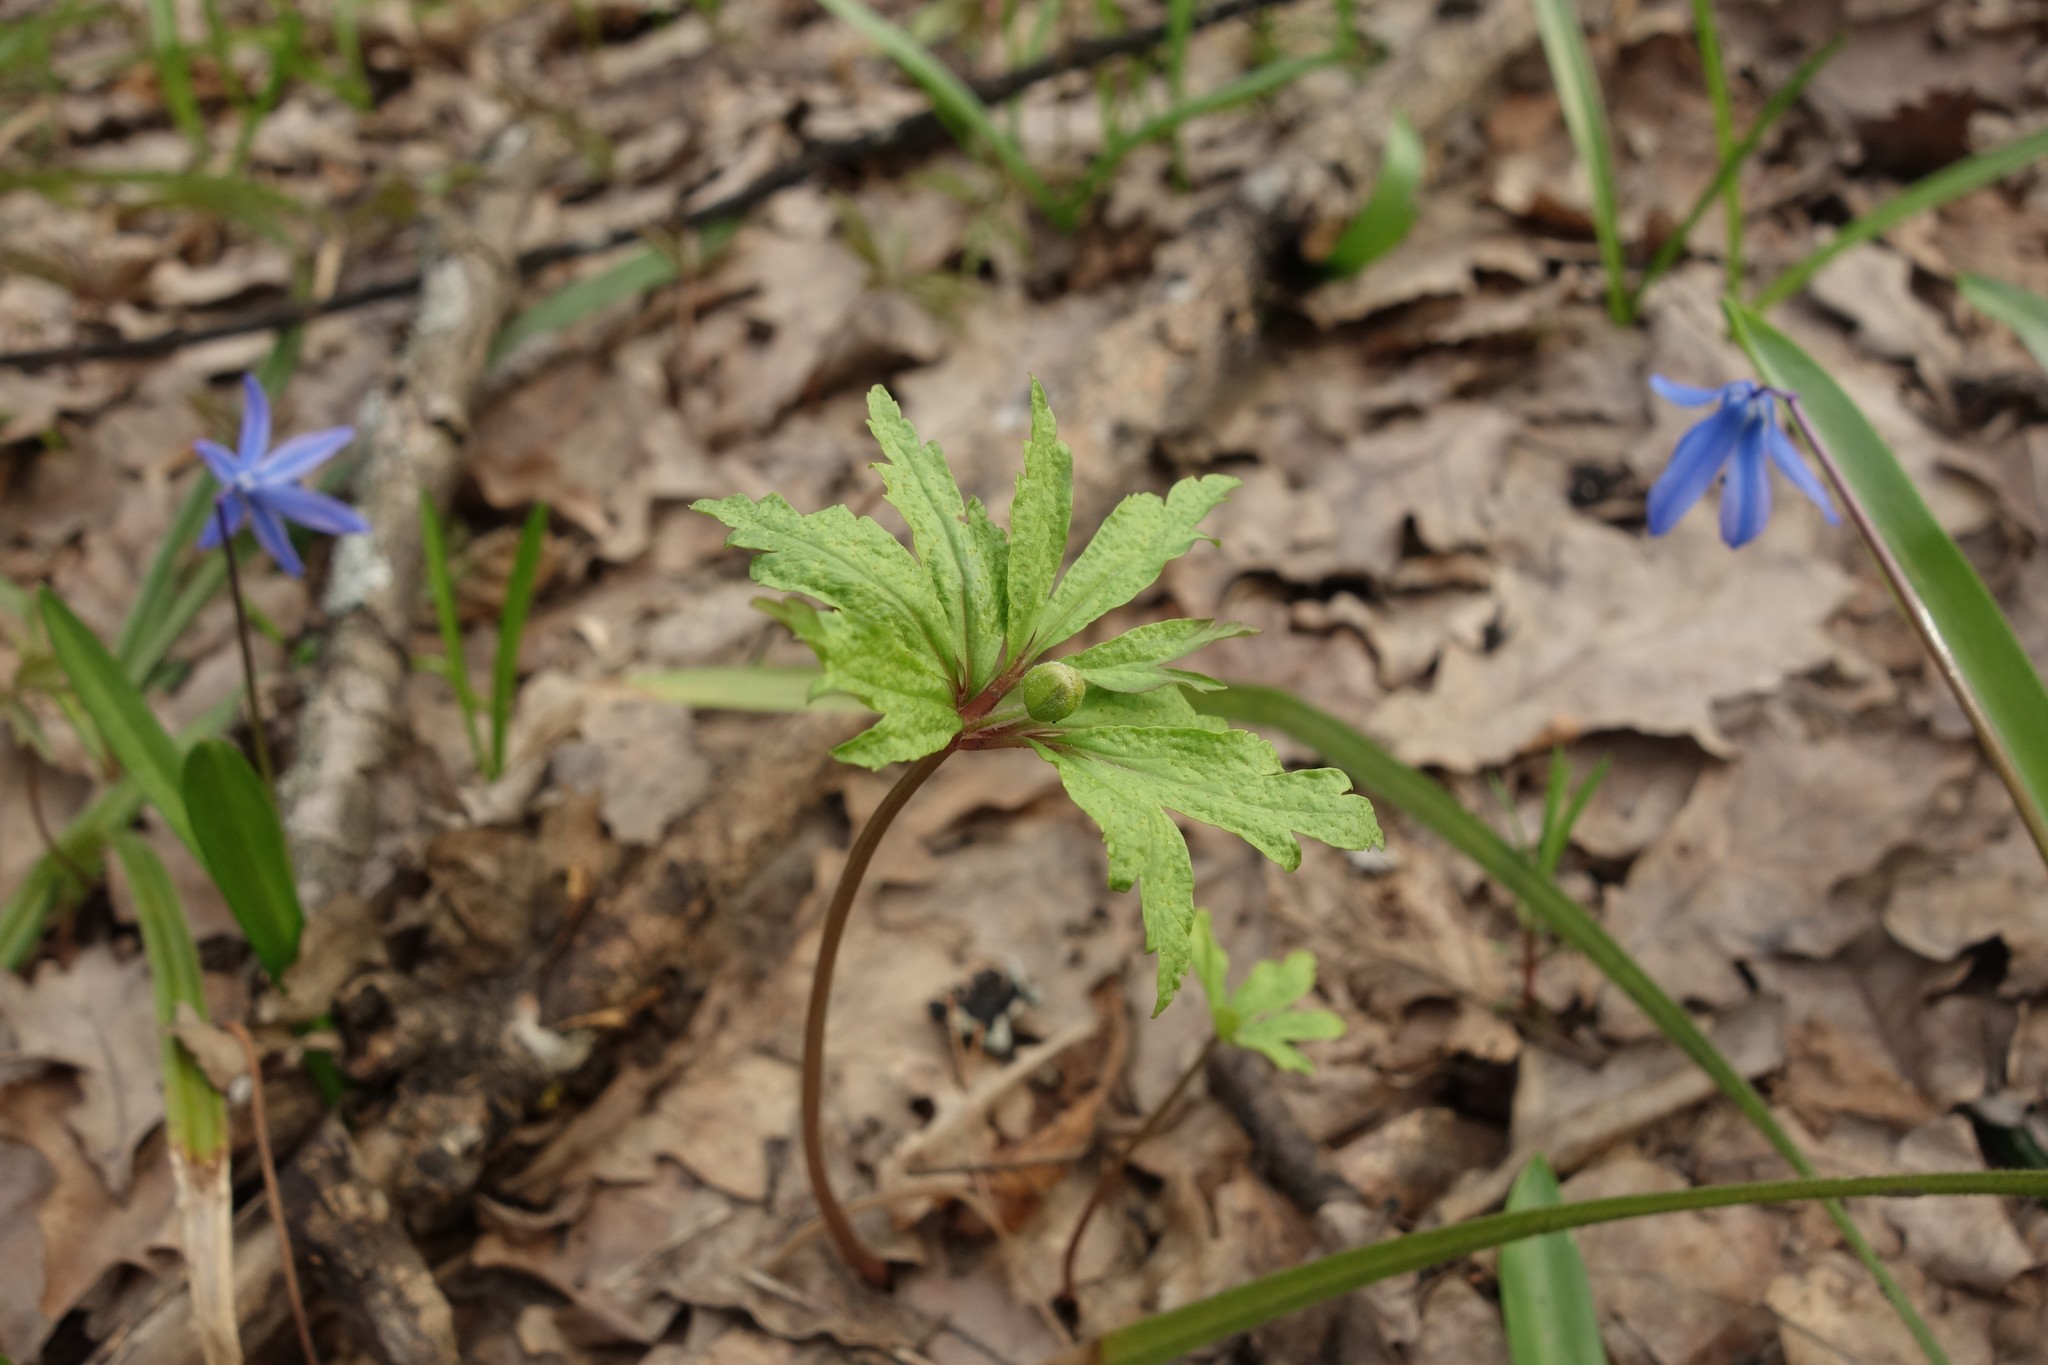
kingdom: Plantae
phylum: Tracheophyta
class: Magnoliopsida
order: Ranunculales
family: Ranunculaceae
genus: Anemone
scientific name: Anemone ranunculoides
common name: Yellow anemone
